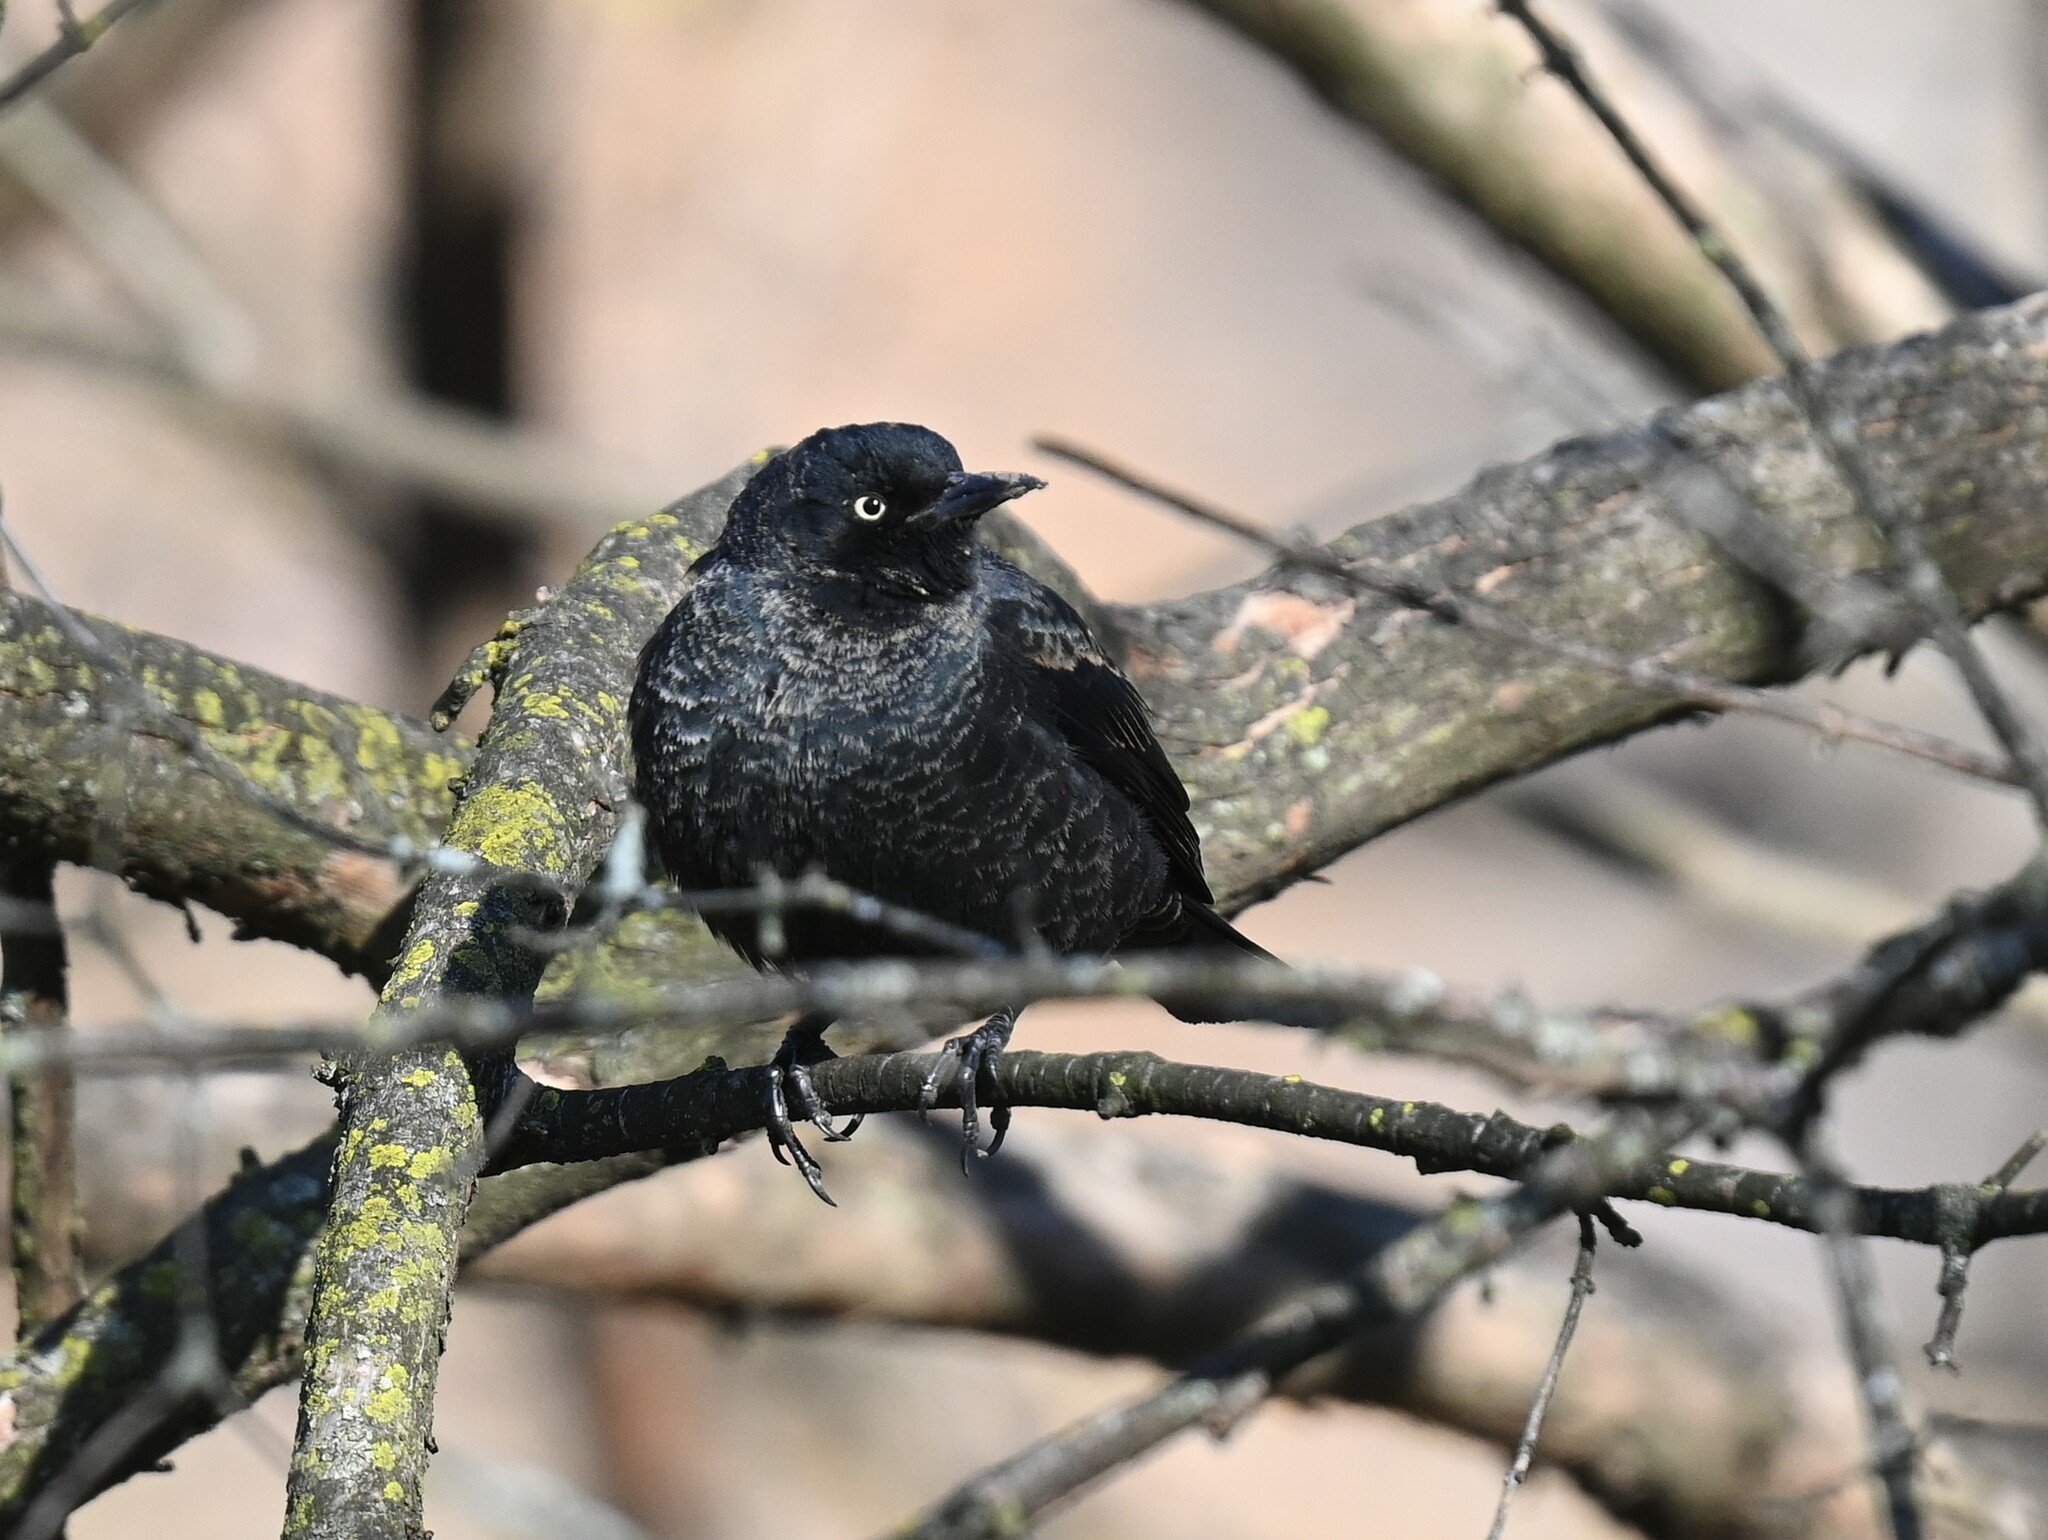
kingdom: Animalia
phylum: Chordata
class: Aves
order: Passeriformes
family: Icteridae
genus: Euphagus
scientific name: Euphagus carolinus
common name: Rusty blackbird
